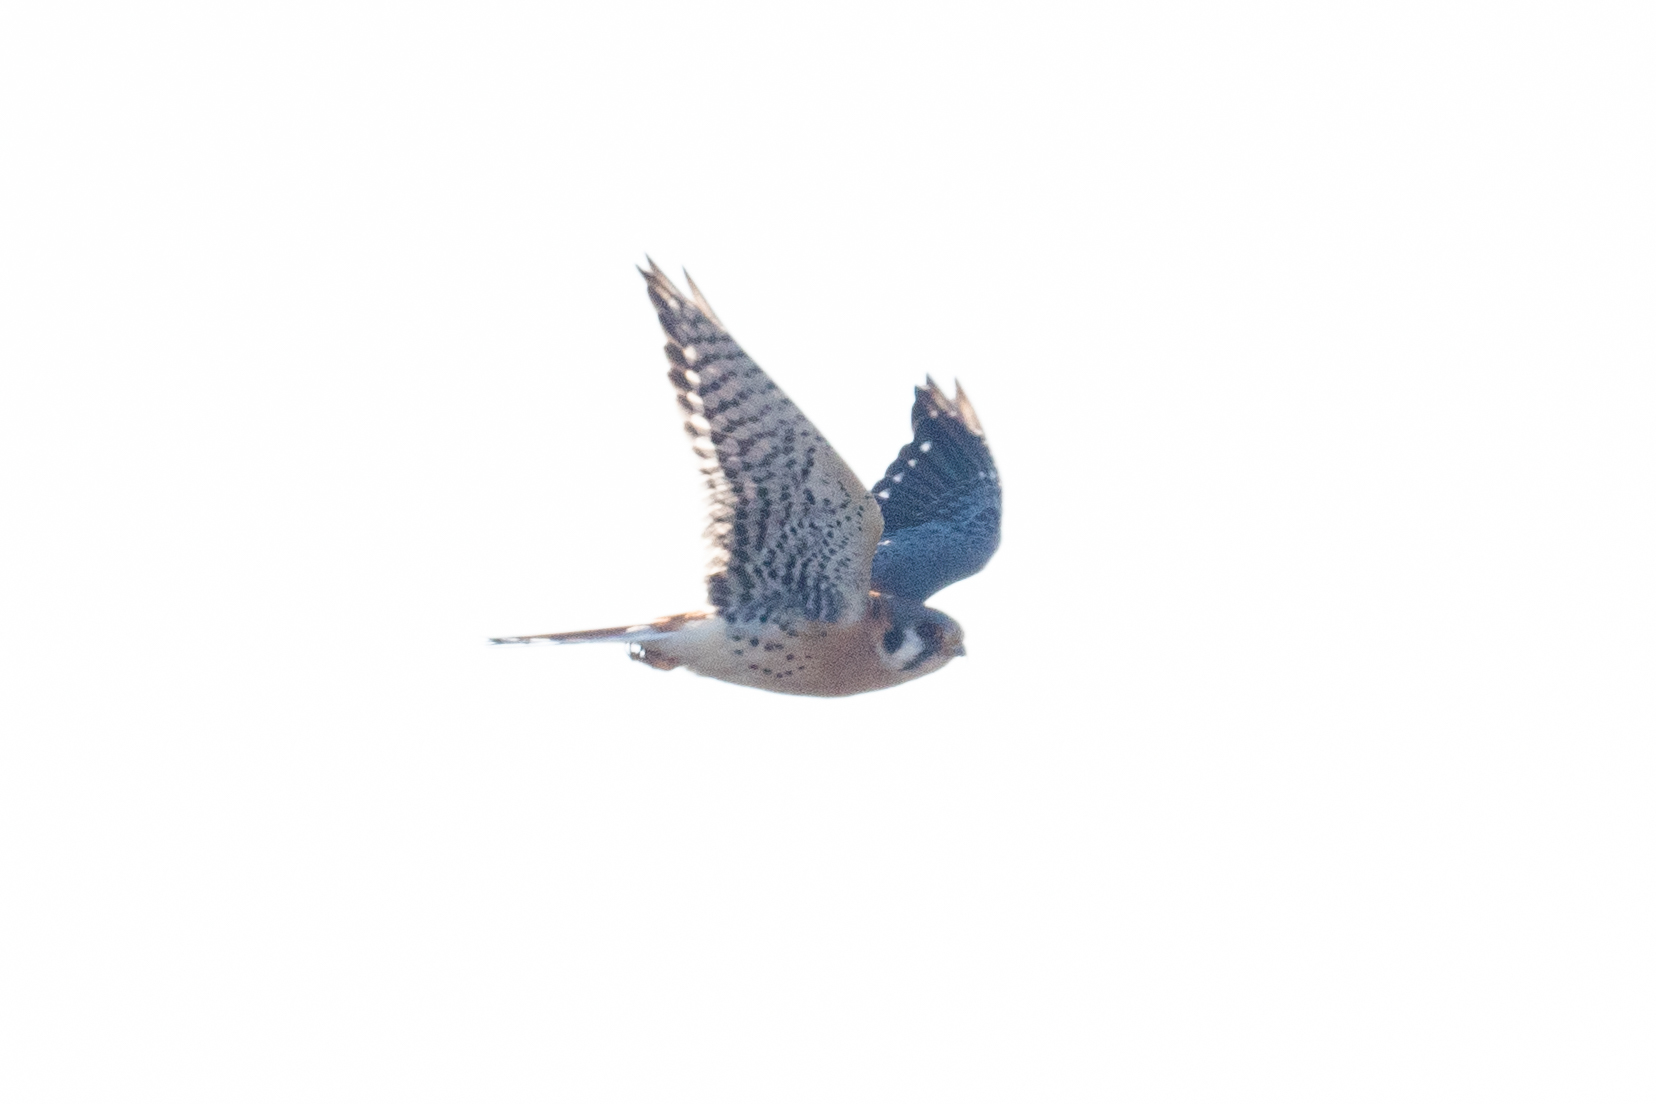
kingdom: Animalia
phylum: Chordata
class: Aves
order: Falconiformes
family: Falconidae
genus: Falco
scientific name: Falco sparverius
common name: American kestrel
